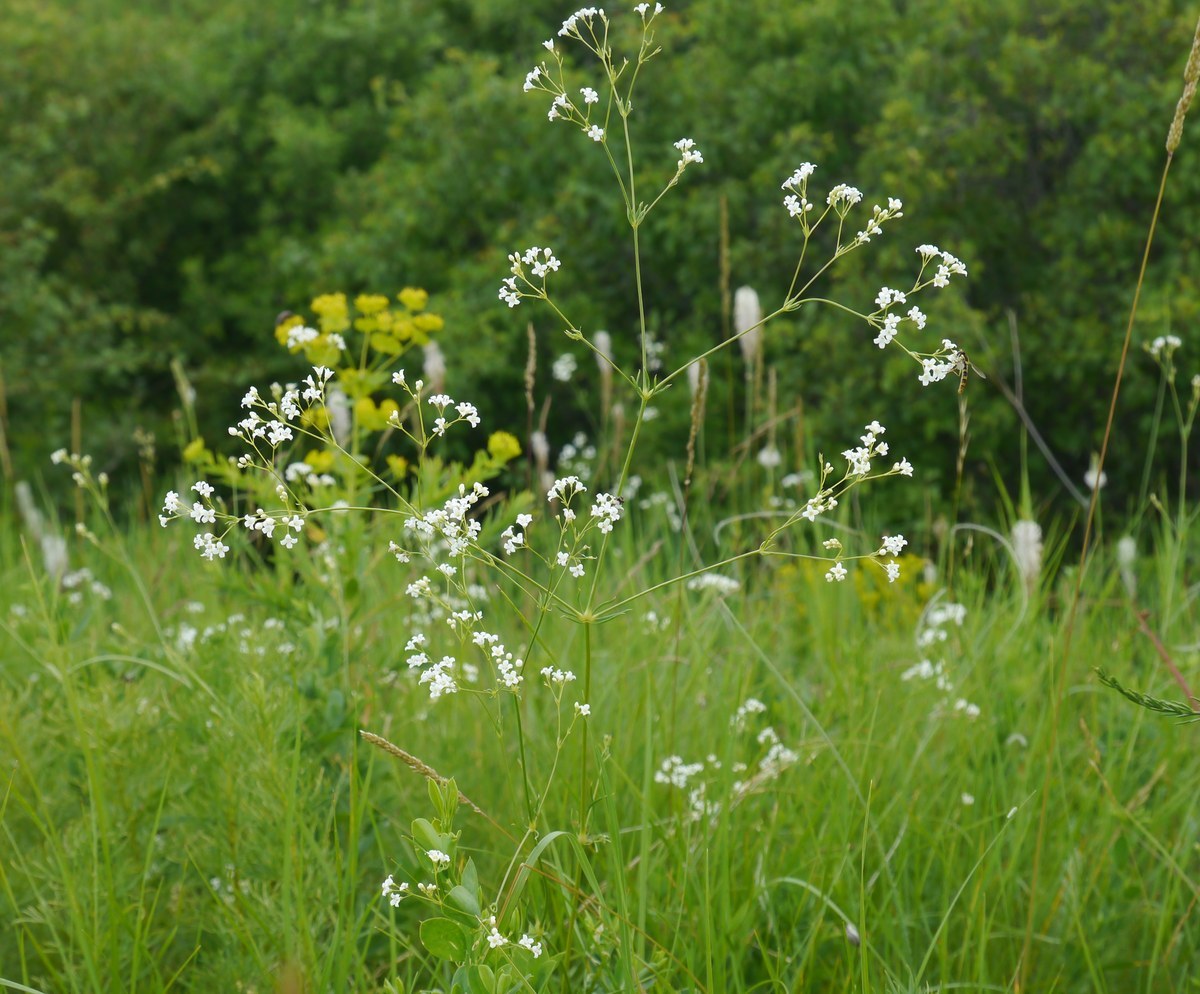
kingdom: Plantae
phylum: Tracheophyta
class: Magnoliopsida
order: Gentianales
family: Rubiaceae
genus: Galium
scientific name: Galium octonarium
